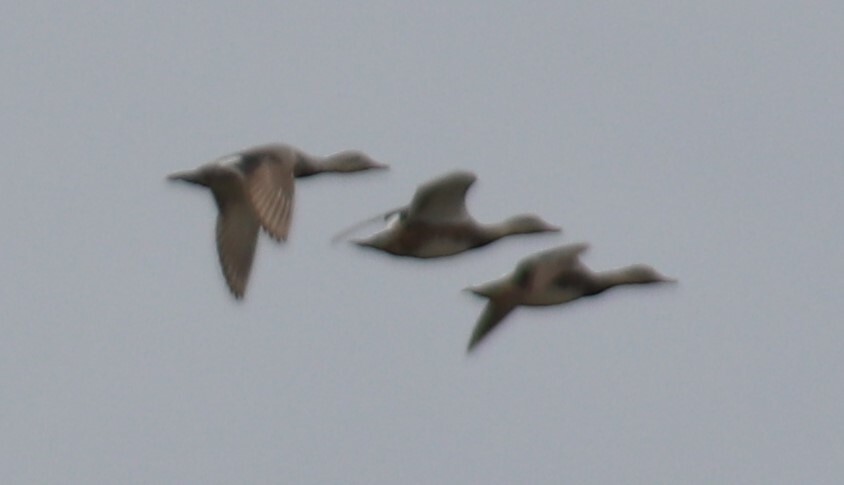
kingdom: Animalia
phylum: Chordata
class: Aves
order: Anseriformes
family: Anatidae
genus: Mareca
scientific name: Mareca americana
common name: American wigeon
